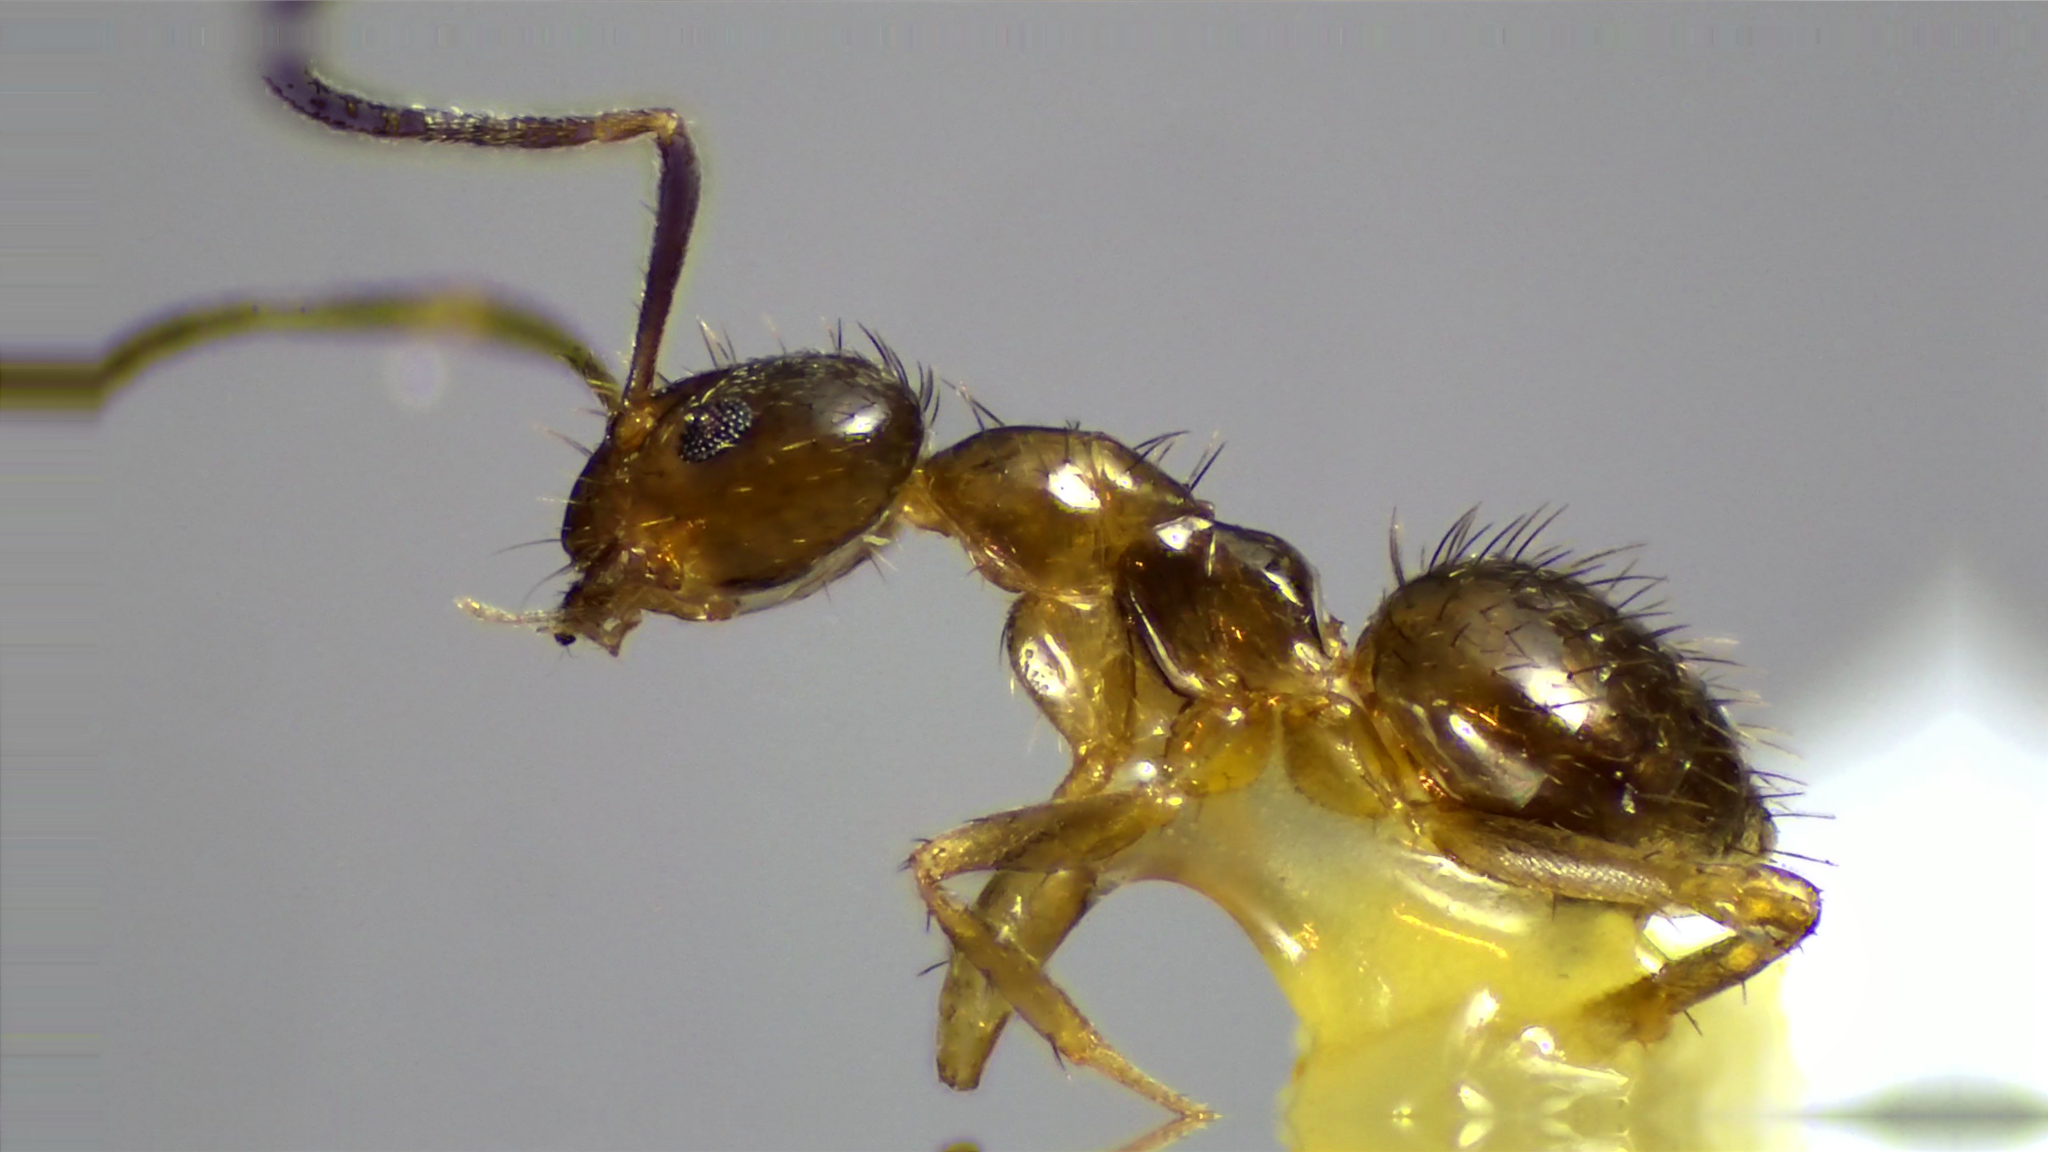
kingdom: Animalia
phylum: Arthropoda
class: Insecta
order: Hymenoptera
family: Formicidae
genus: Nylanderia
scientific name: Nylanderia terricola
